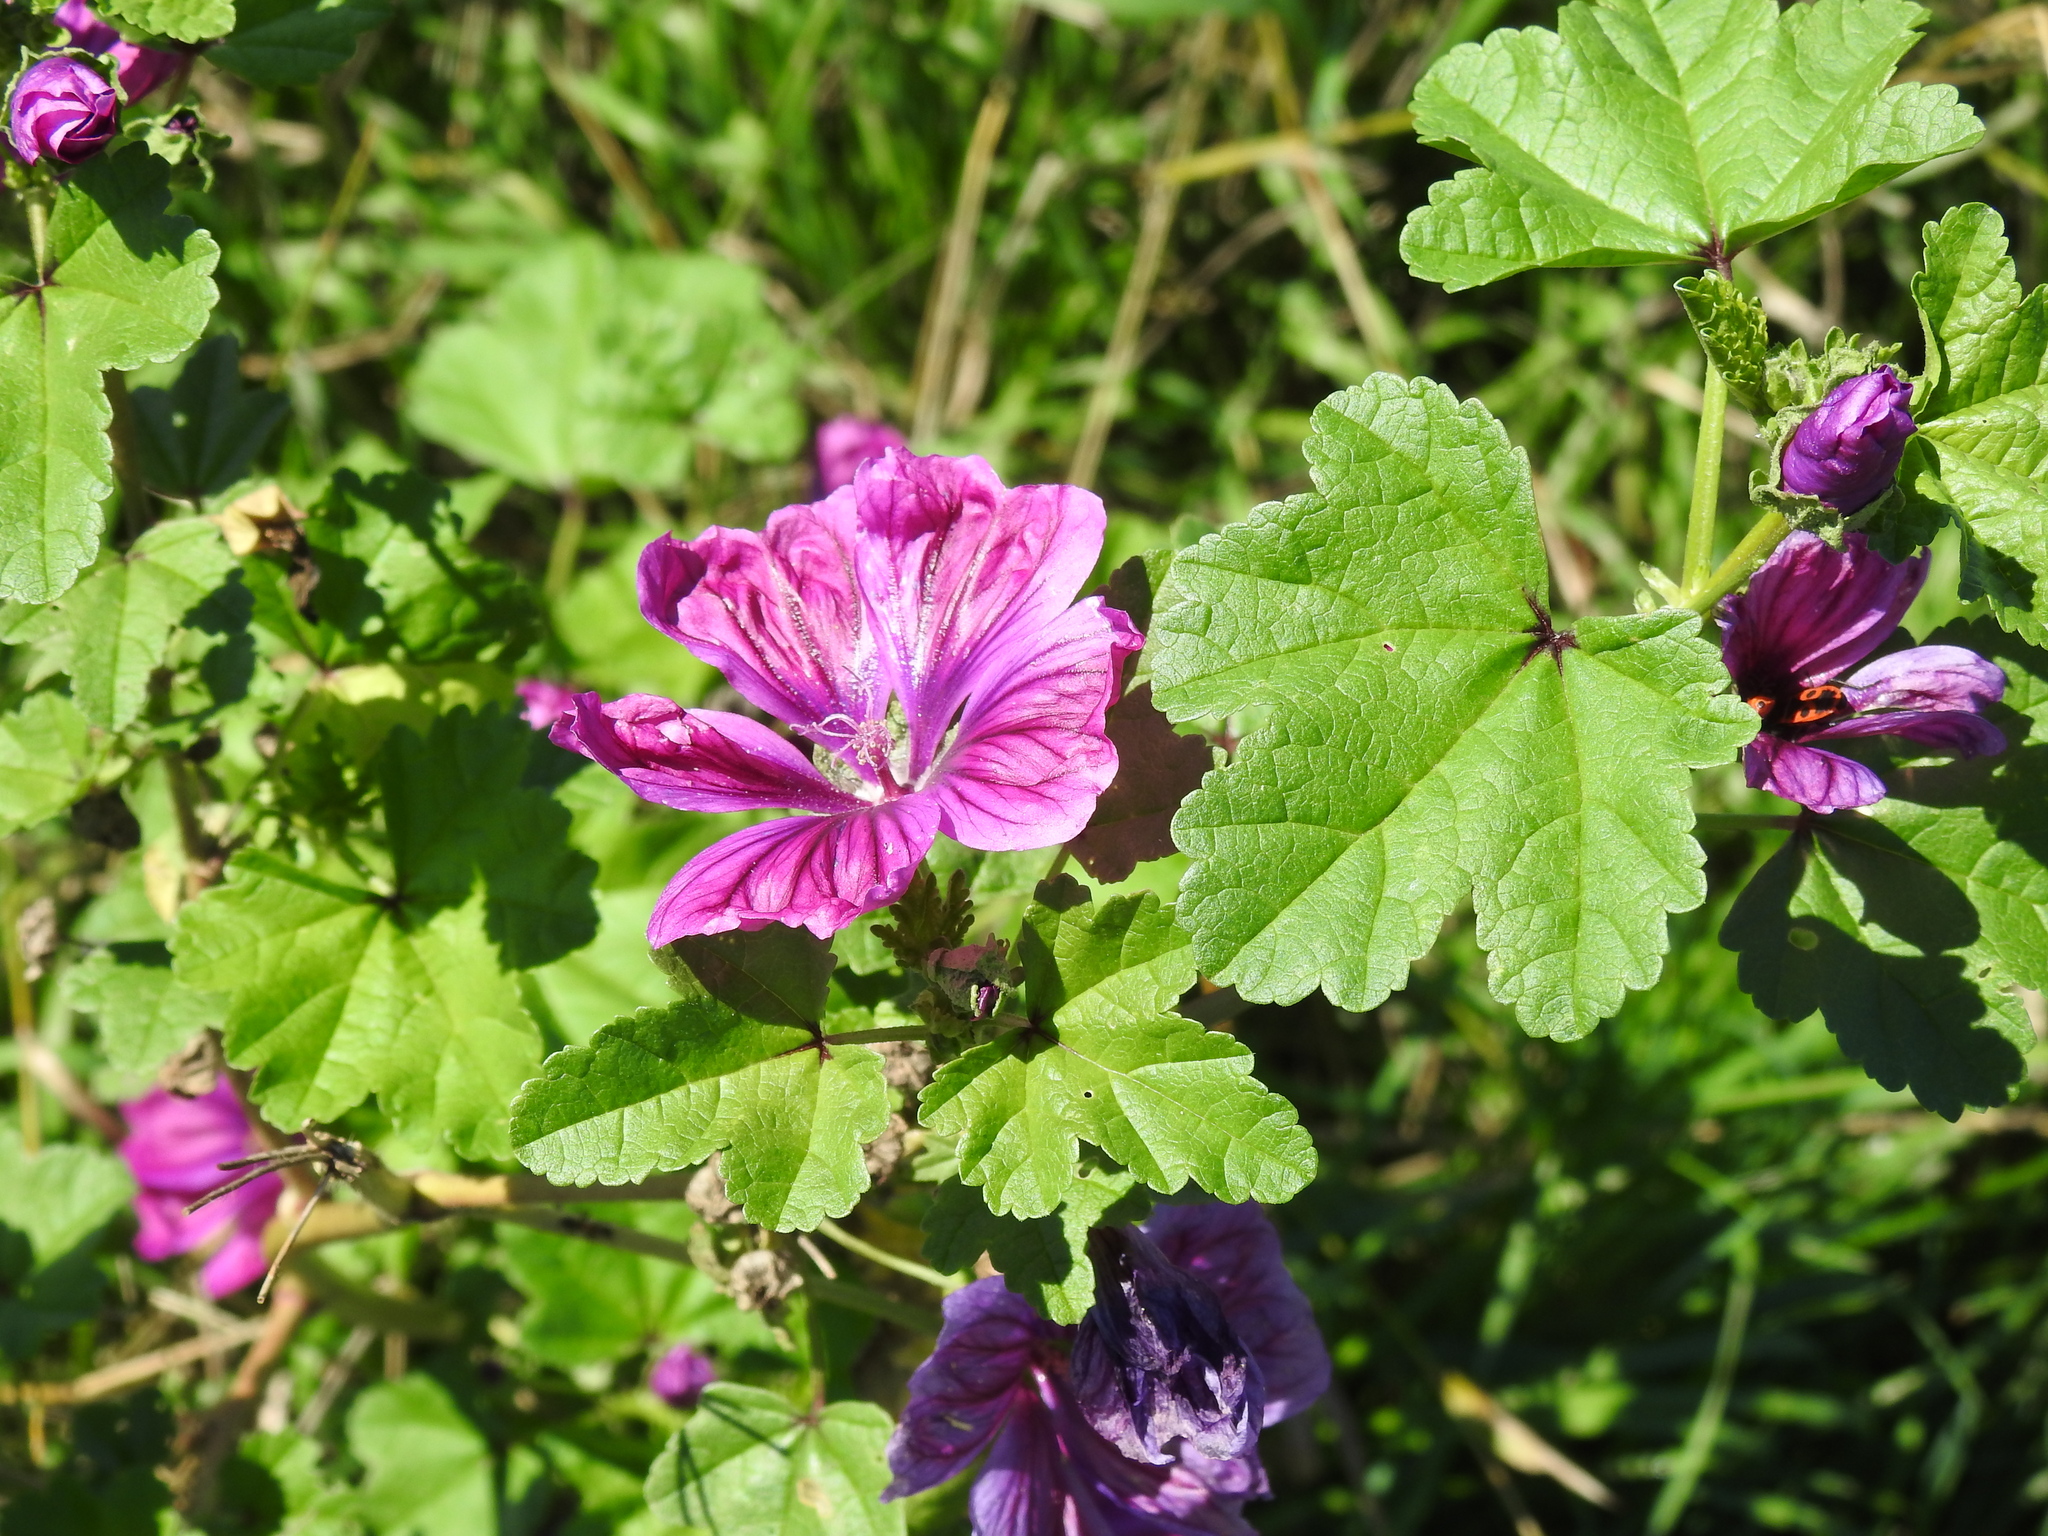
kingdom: Plantae
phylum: Tracheophyta
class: Magnoliopsida
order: Malvales
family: Malvaceae
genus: Malva
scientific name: Malva sylvestris
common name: Common mallow
